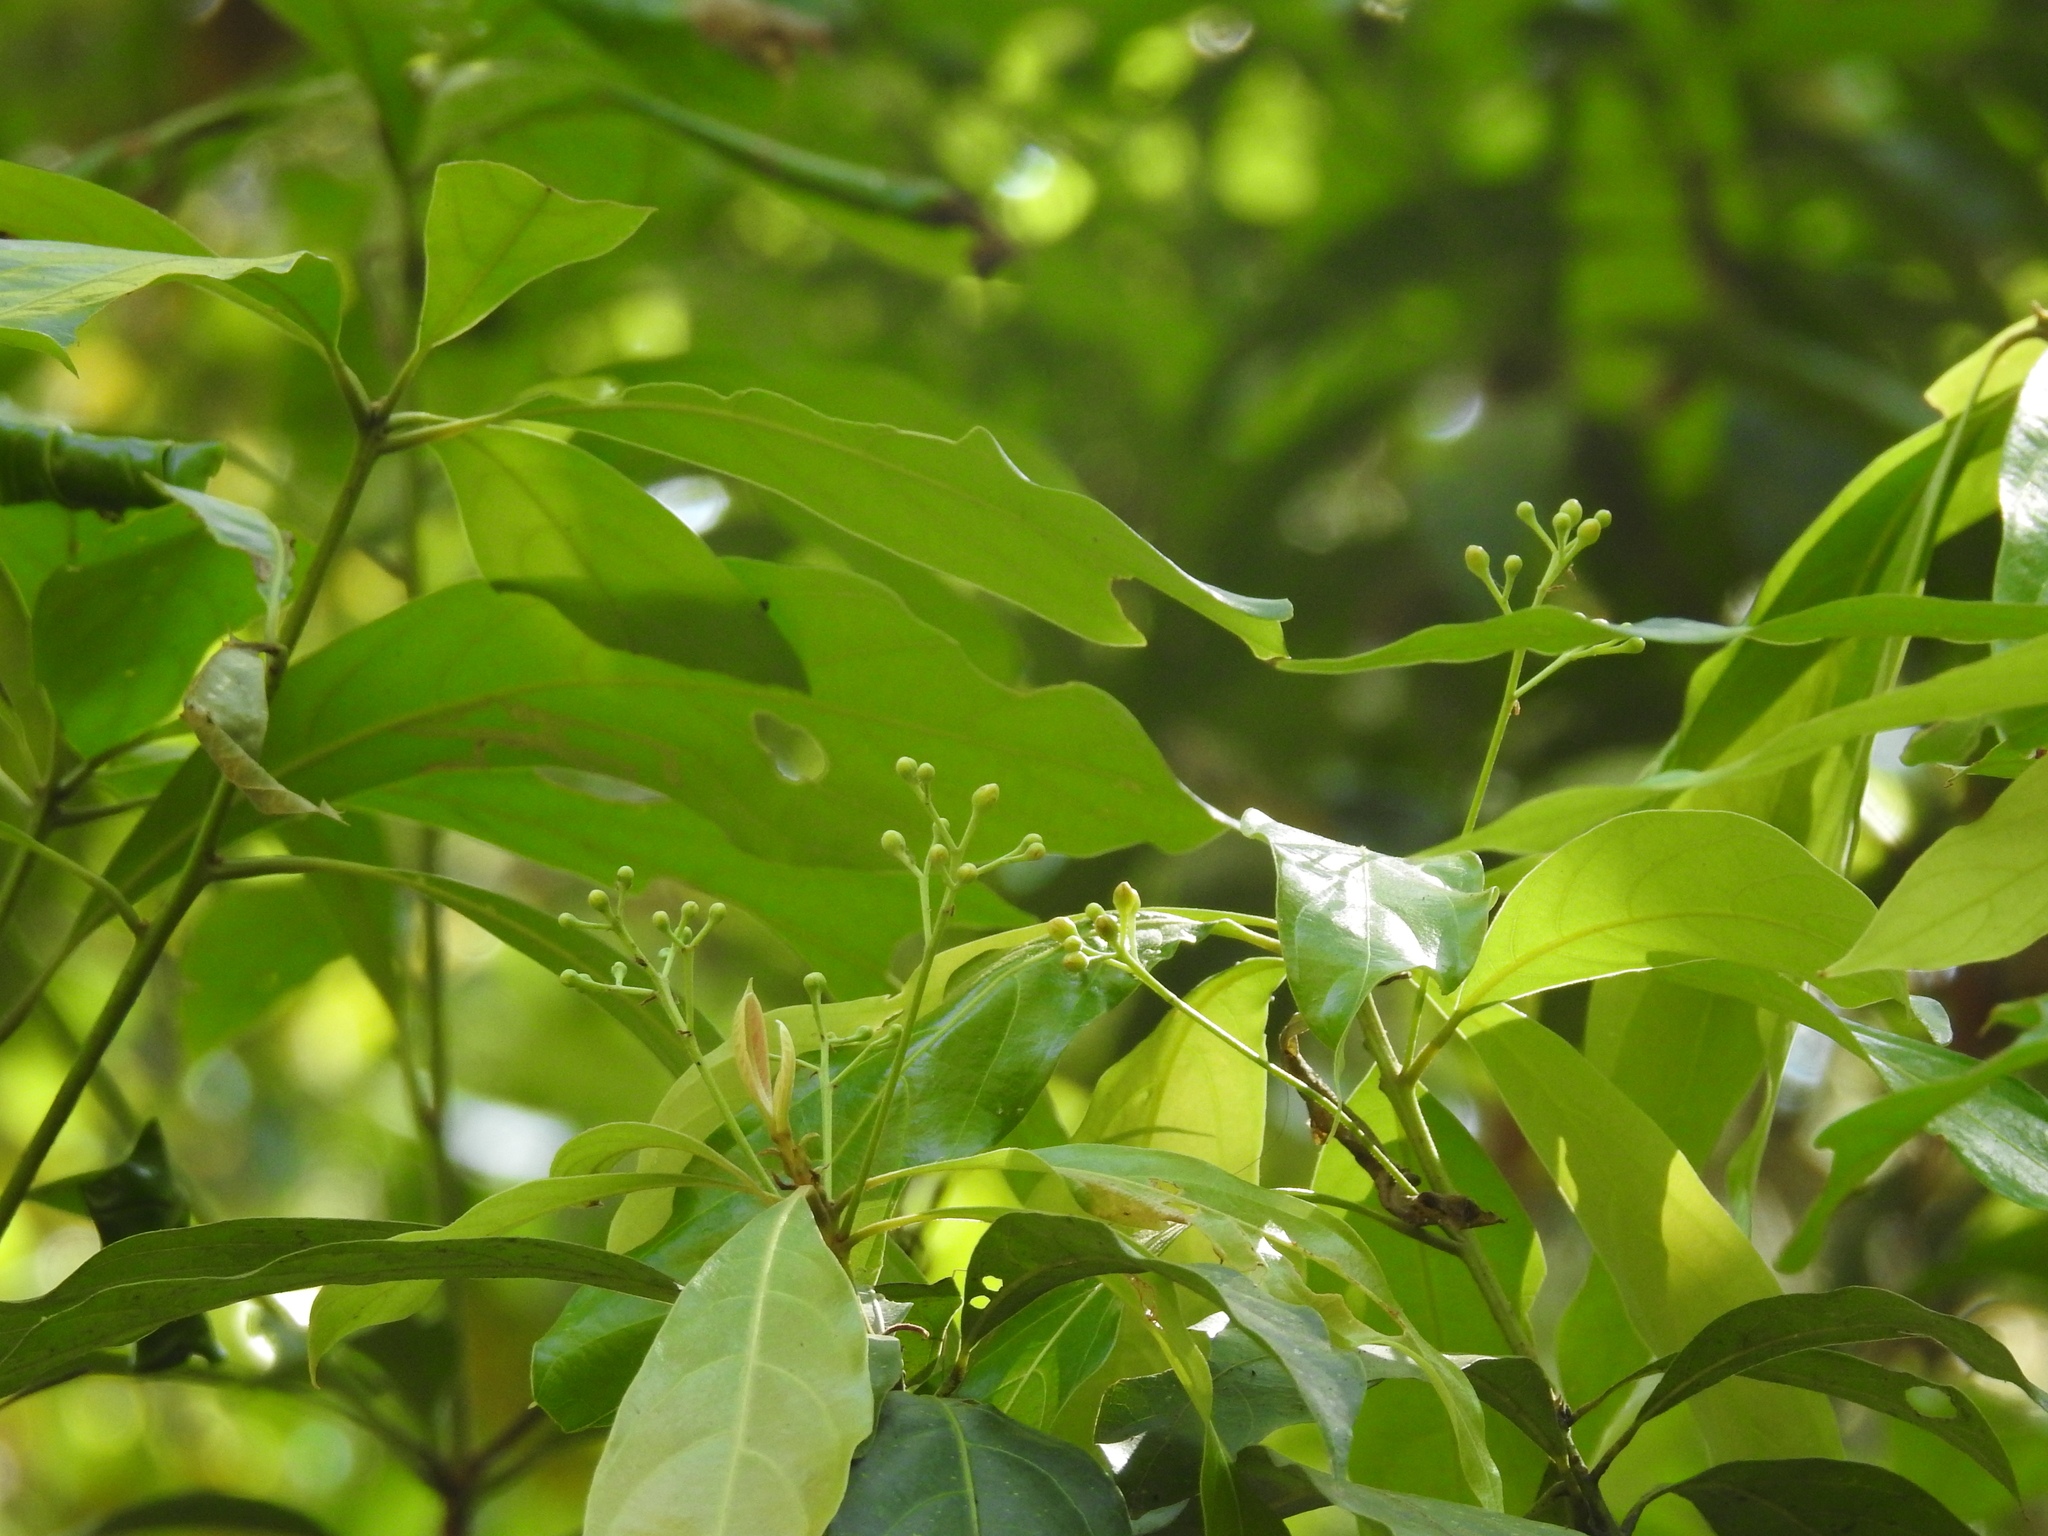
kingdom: Plantae
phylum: Tracheophyta
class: Magnoliopsida
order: Laurales
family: Lauraceae
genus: Phoebe
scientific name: Phoebe lanceolata
